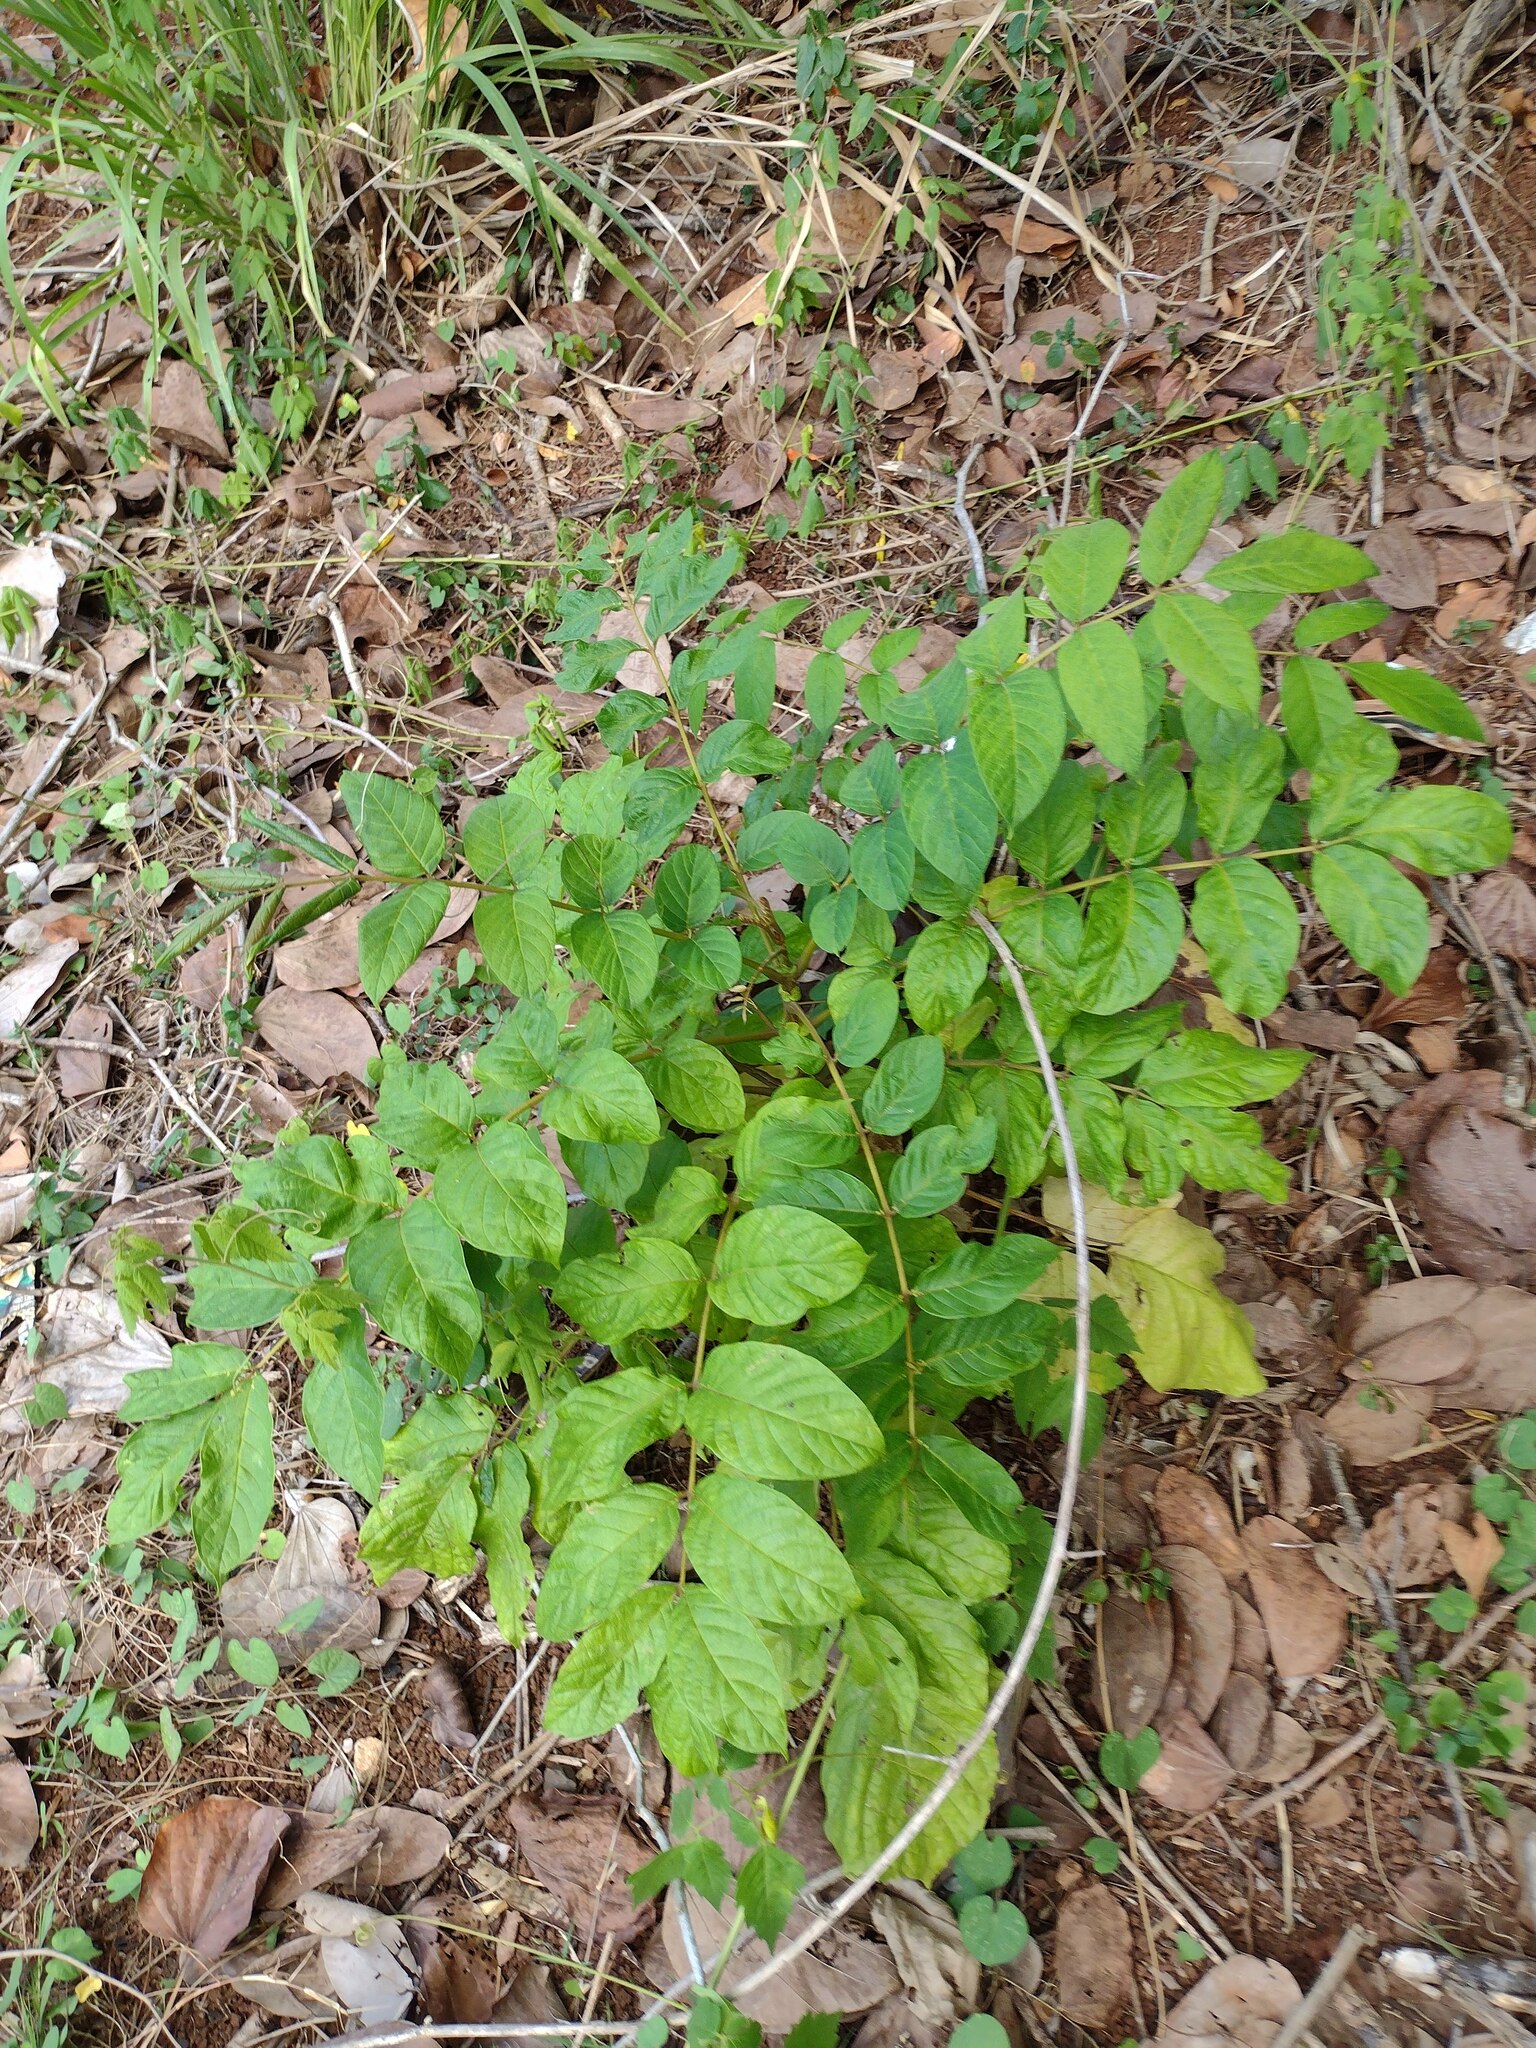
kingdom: Plantae
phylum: Tracheophyta
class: Magnoliopsida
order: Lamiales
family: Bignoniaceae
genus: Spathodea
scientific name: Spathodea campanulata
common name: African tuliptree
